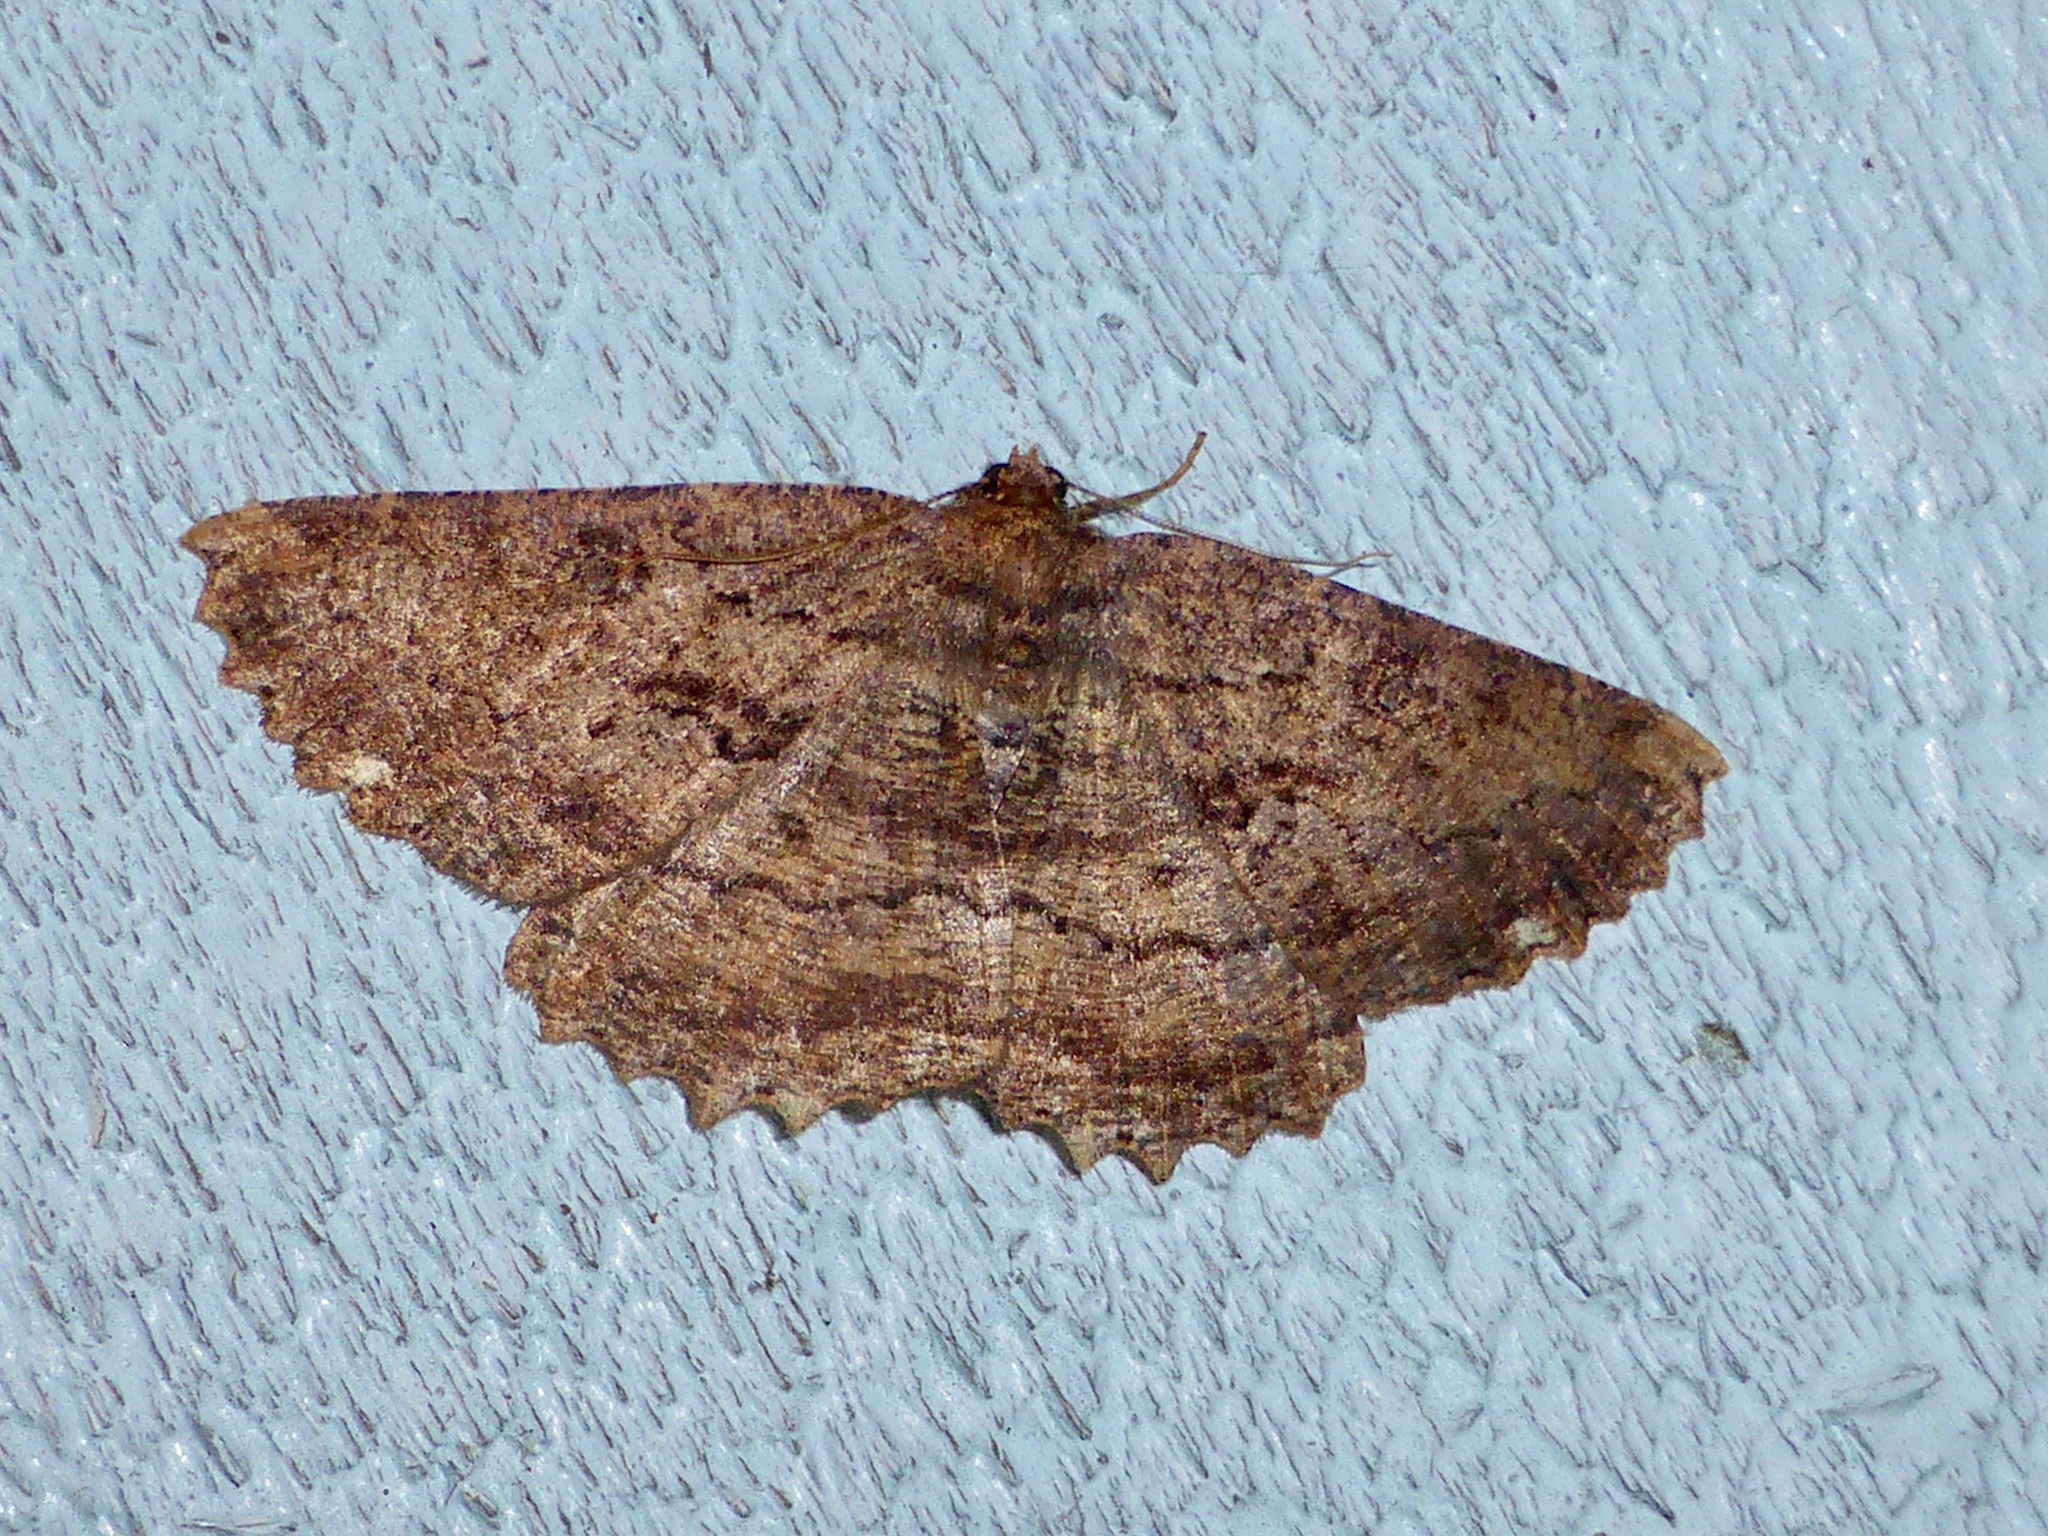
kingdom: Animalia
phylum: Arthropoda
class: Insecta
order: Lepidoptera
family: Geometridae
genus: Gellonia
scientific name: Gellonia dejectaria
